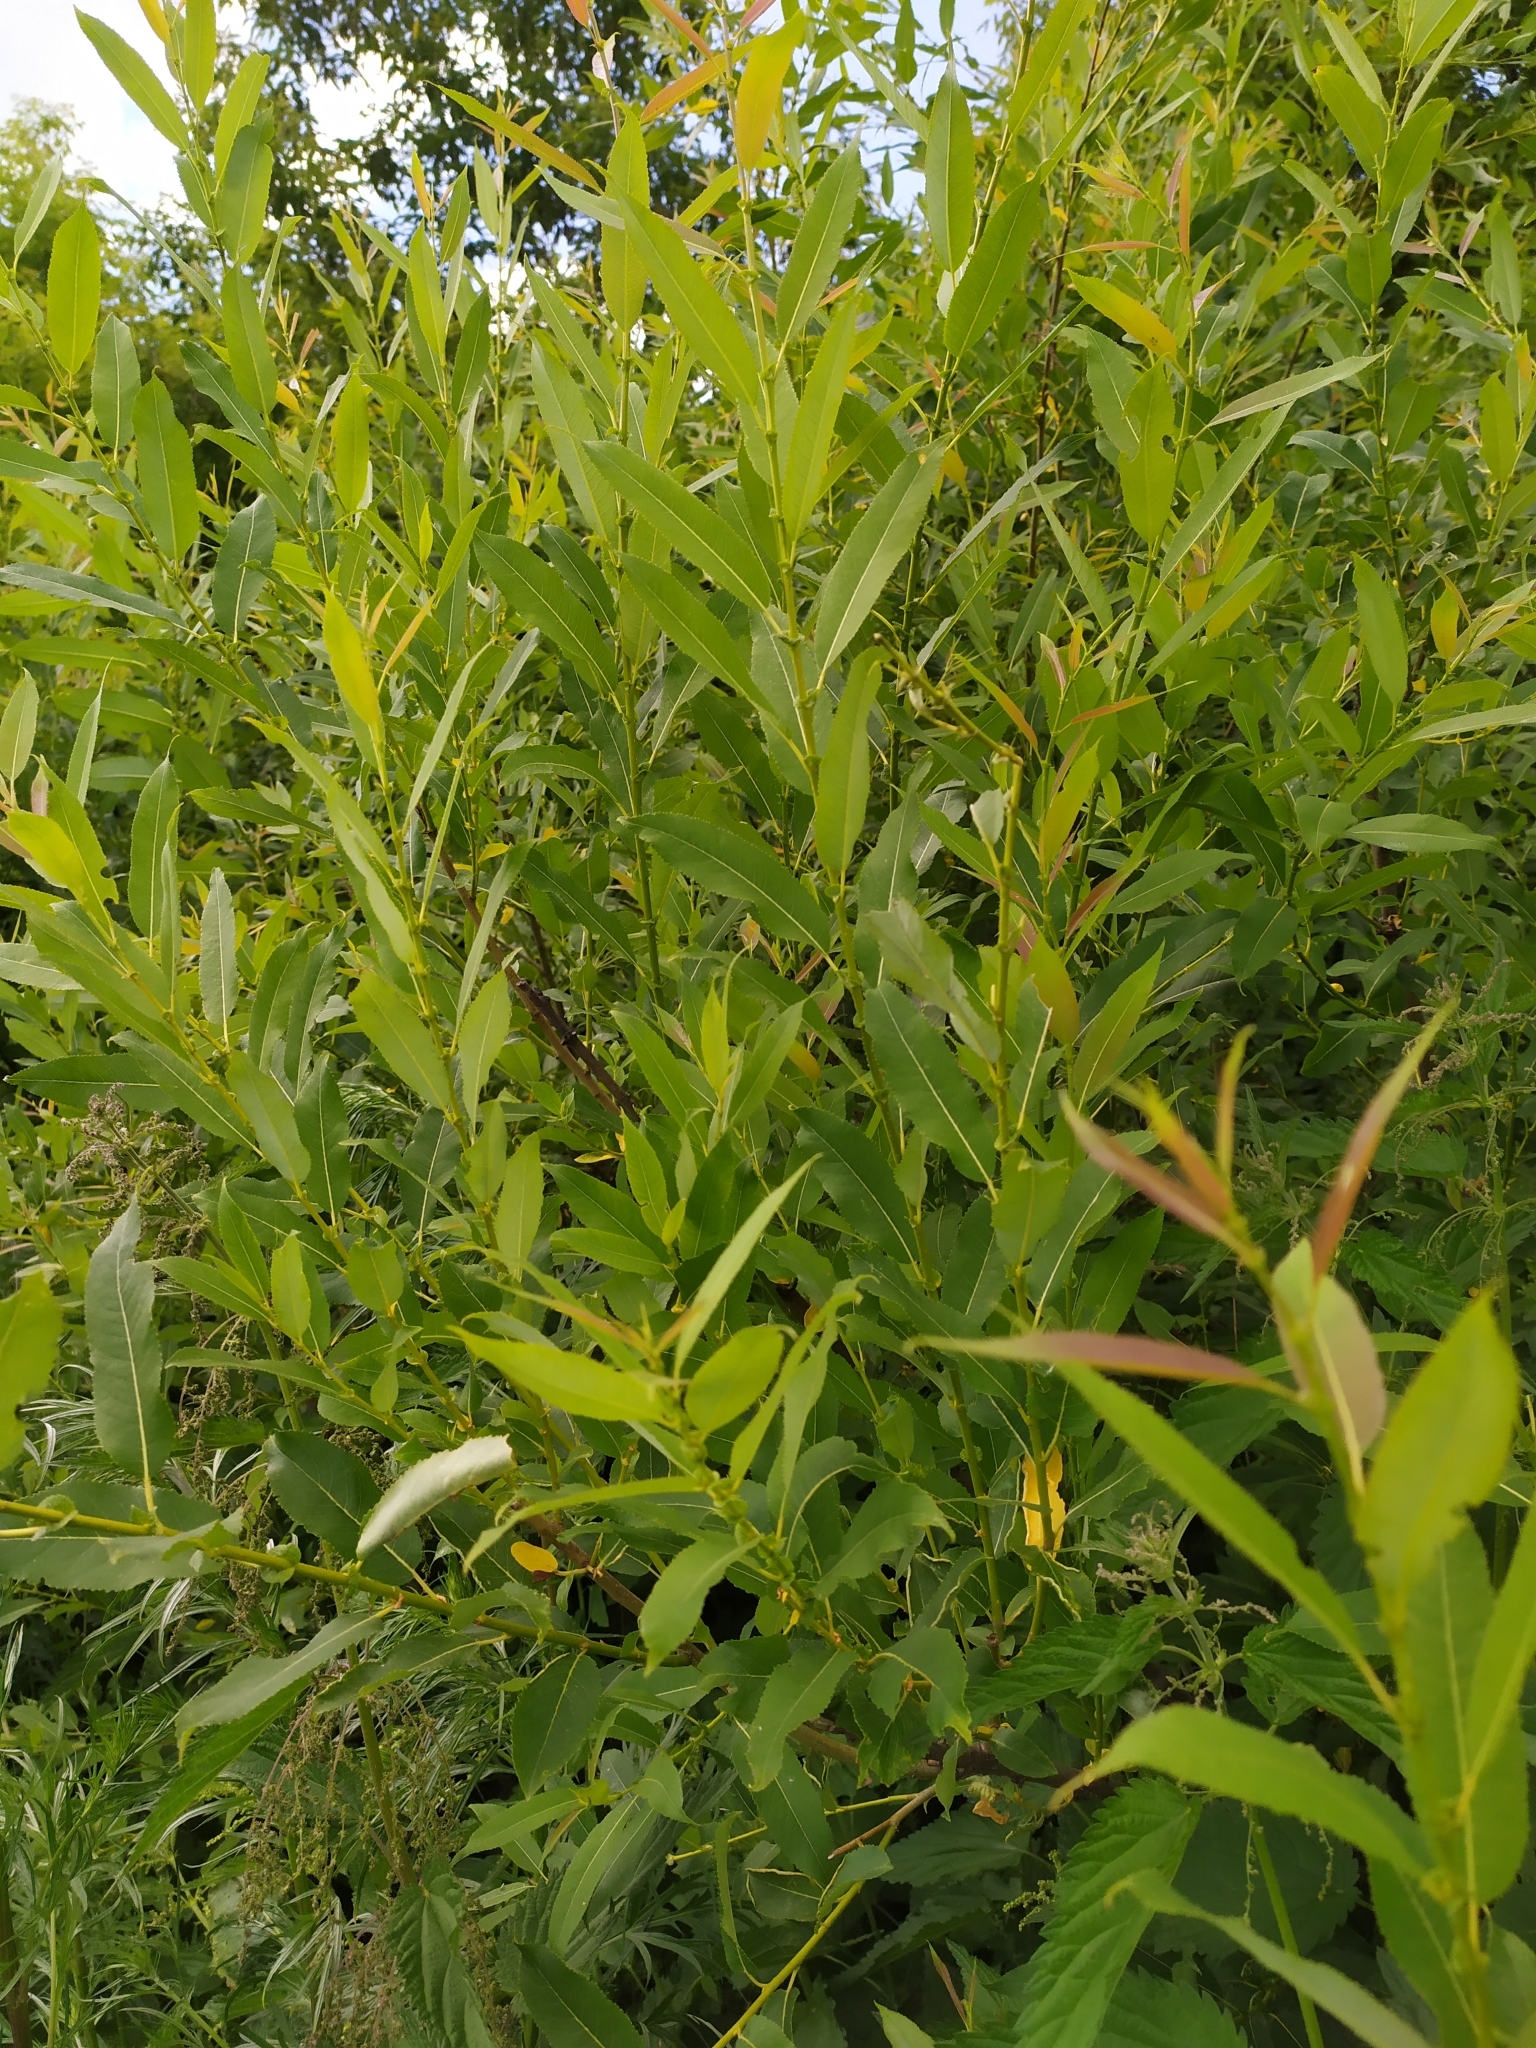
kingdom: Plantae
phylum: Tracheophyta
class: Magnoliopsida
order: Malpighiales
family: Salicaceae
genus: Salix
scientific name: Salix triandra
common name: Almond willow
